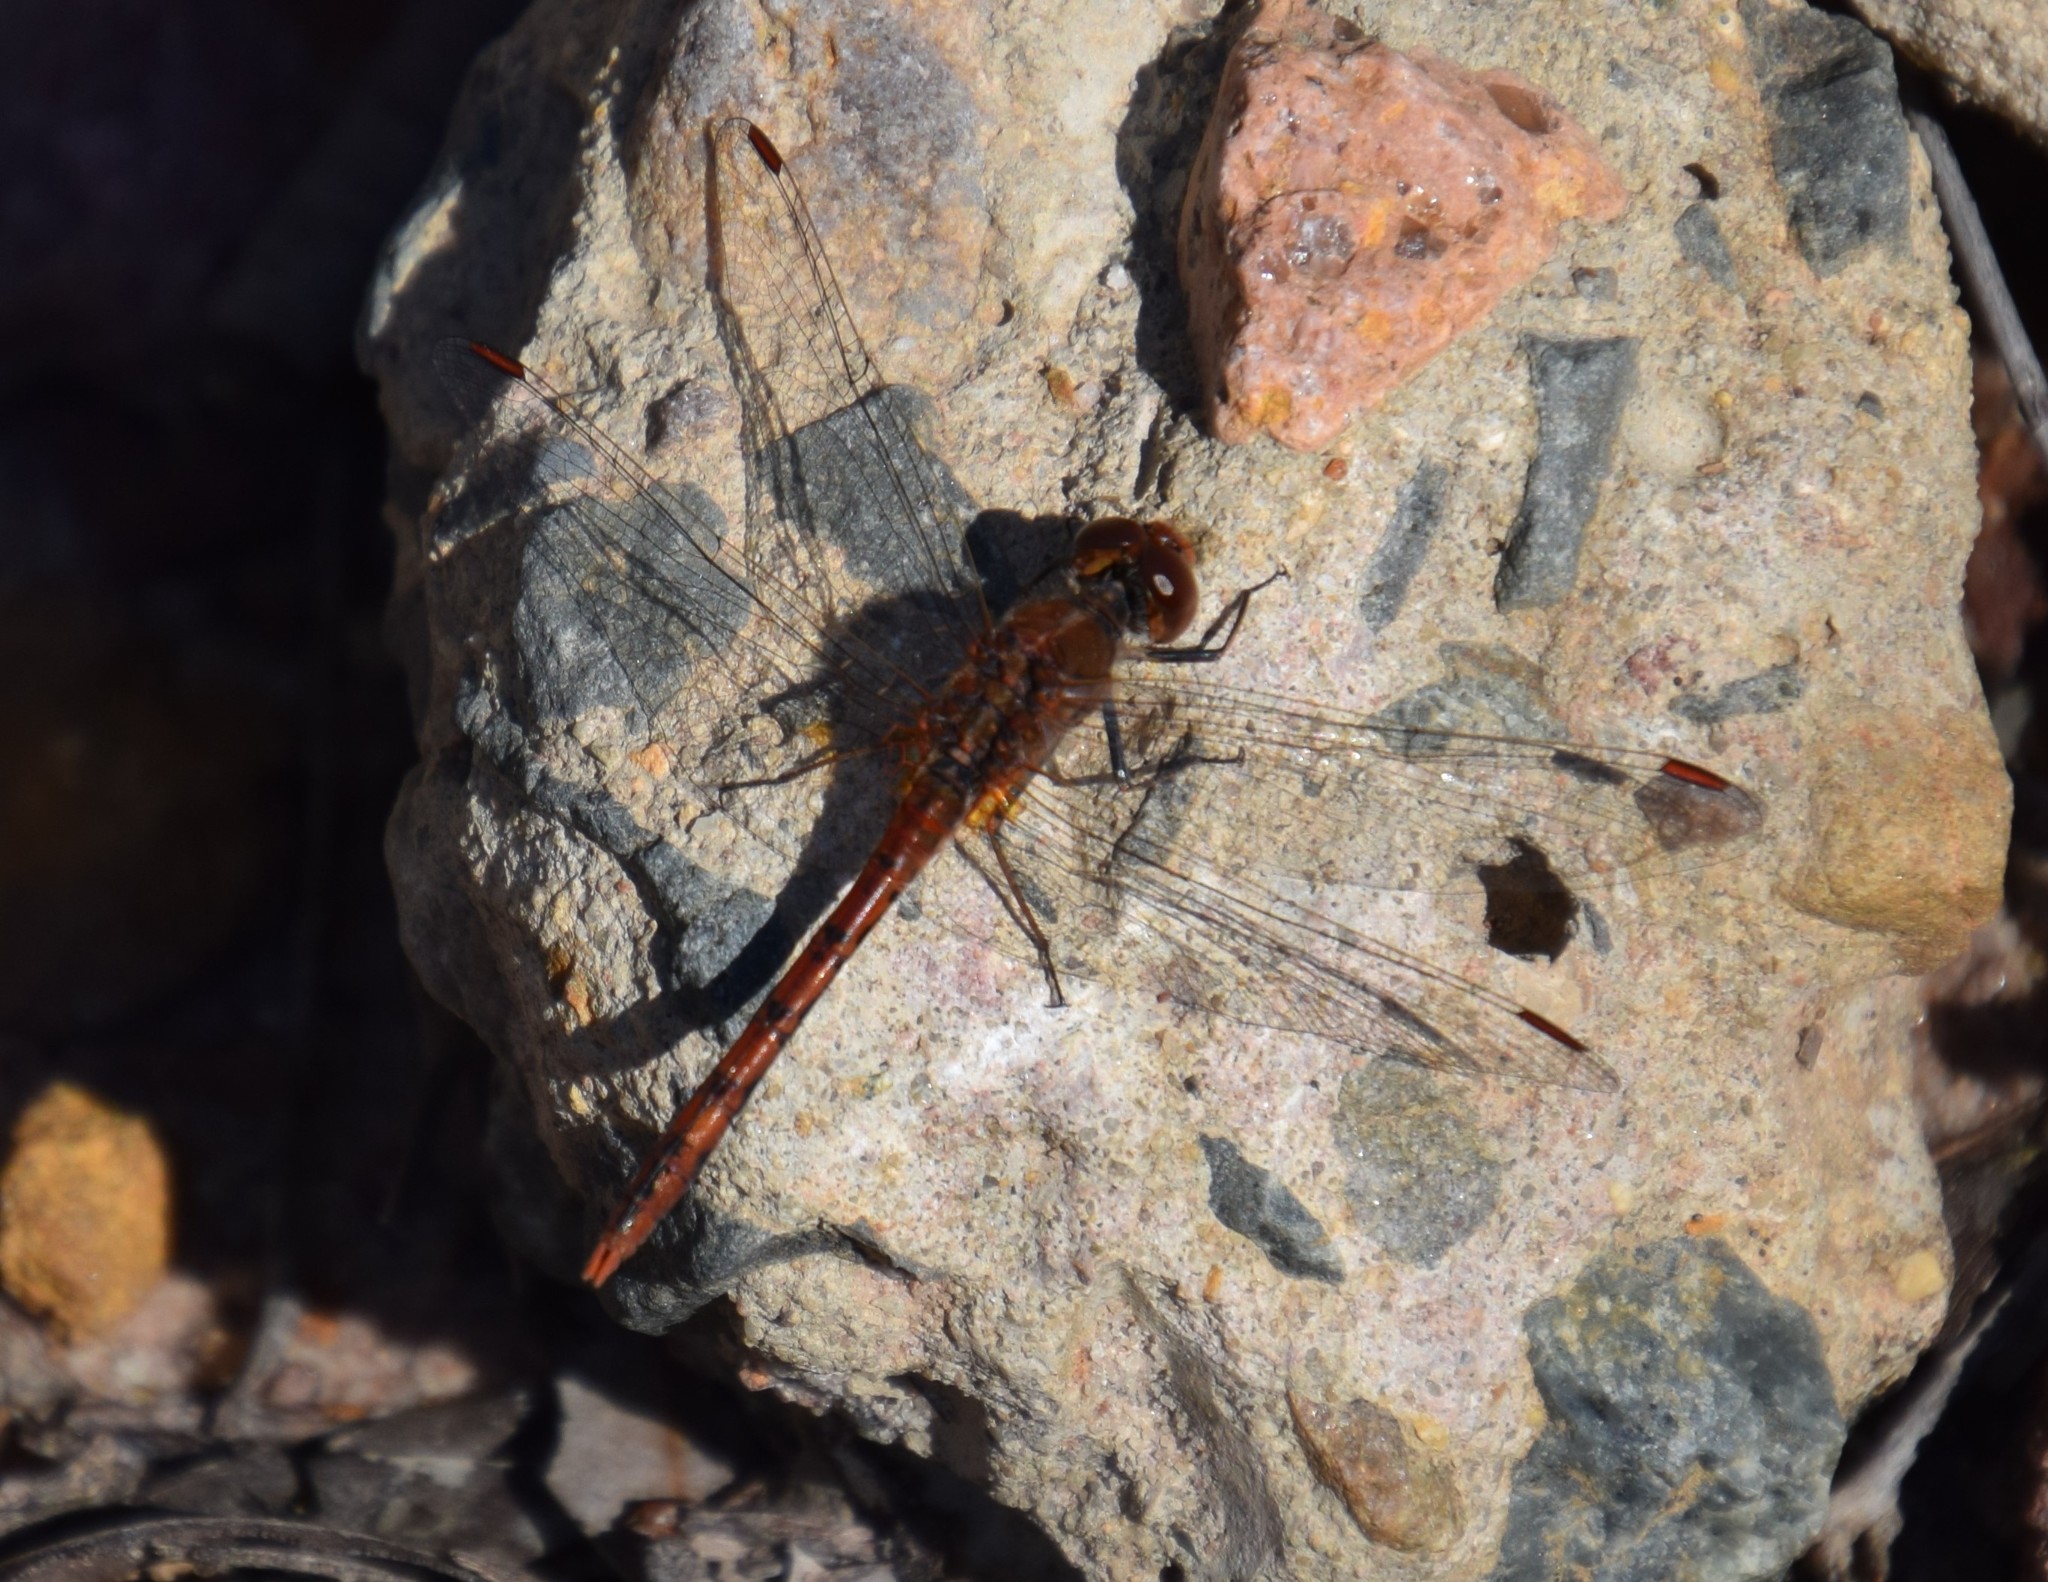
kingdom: Animalia
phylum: Arthropoda
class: Insecta
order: Odonata
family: Libellulidae
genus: Diplacodes
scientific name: Diplacodes bipunctata
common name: Red percher dragonfly
